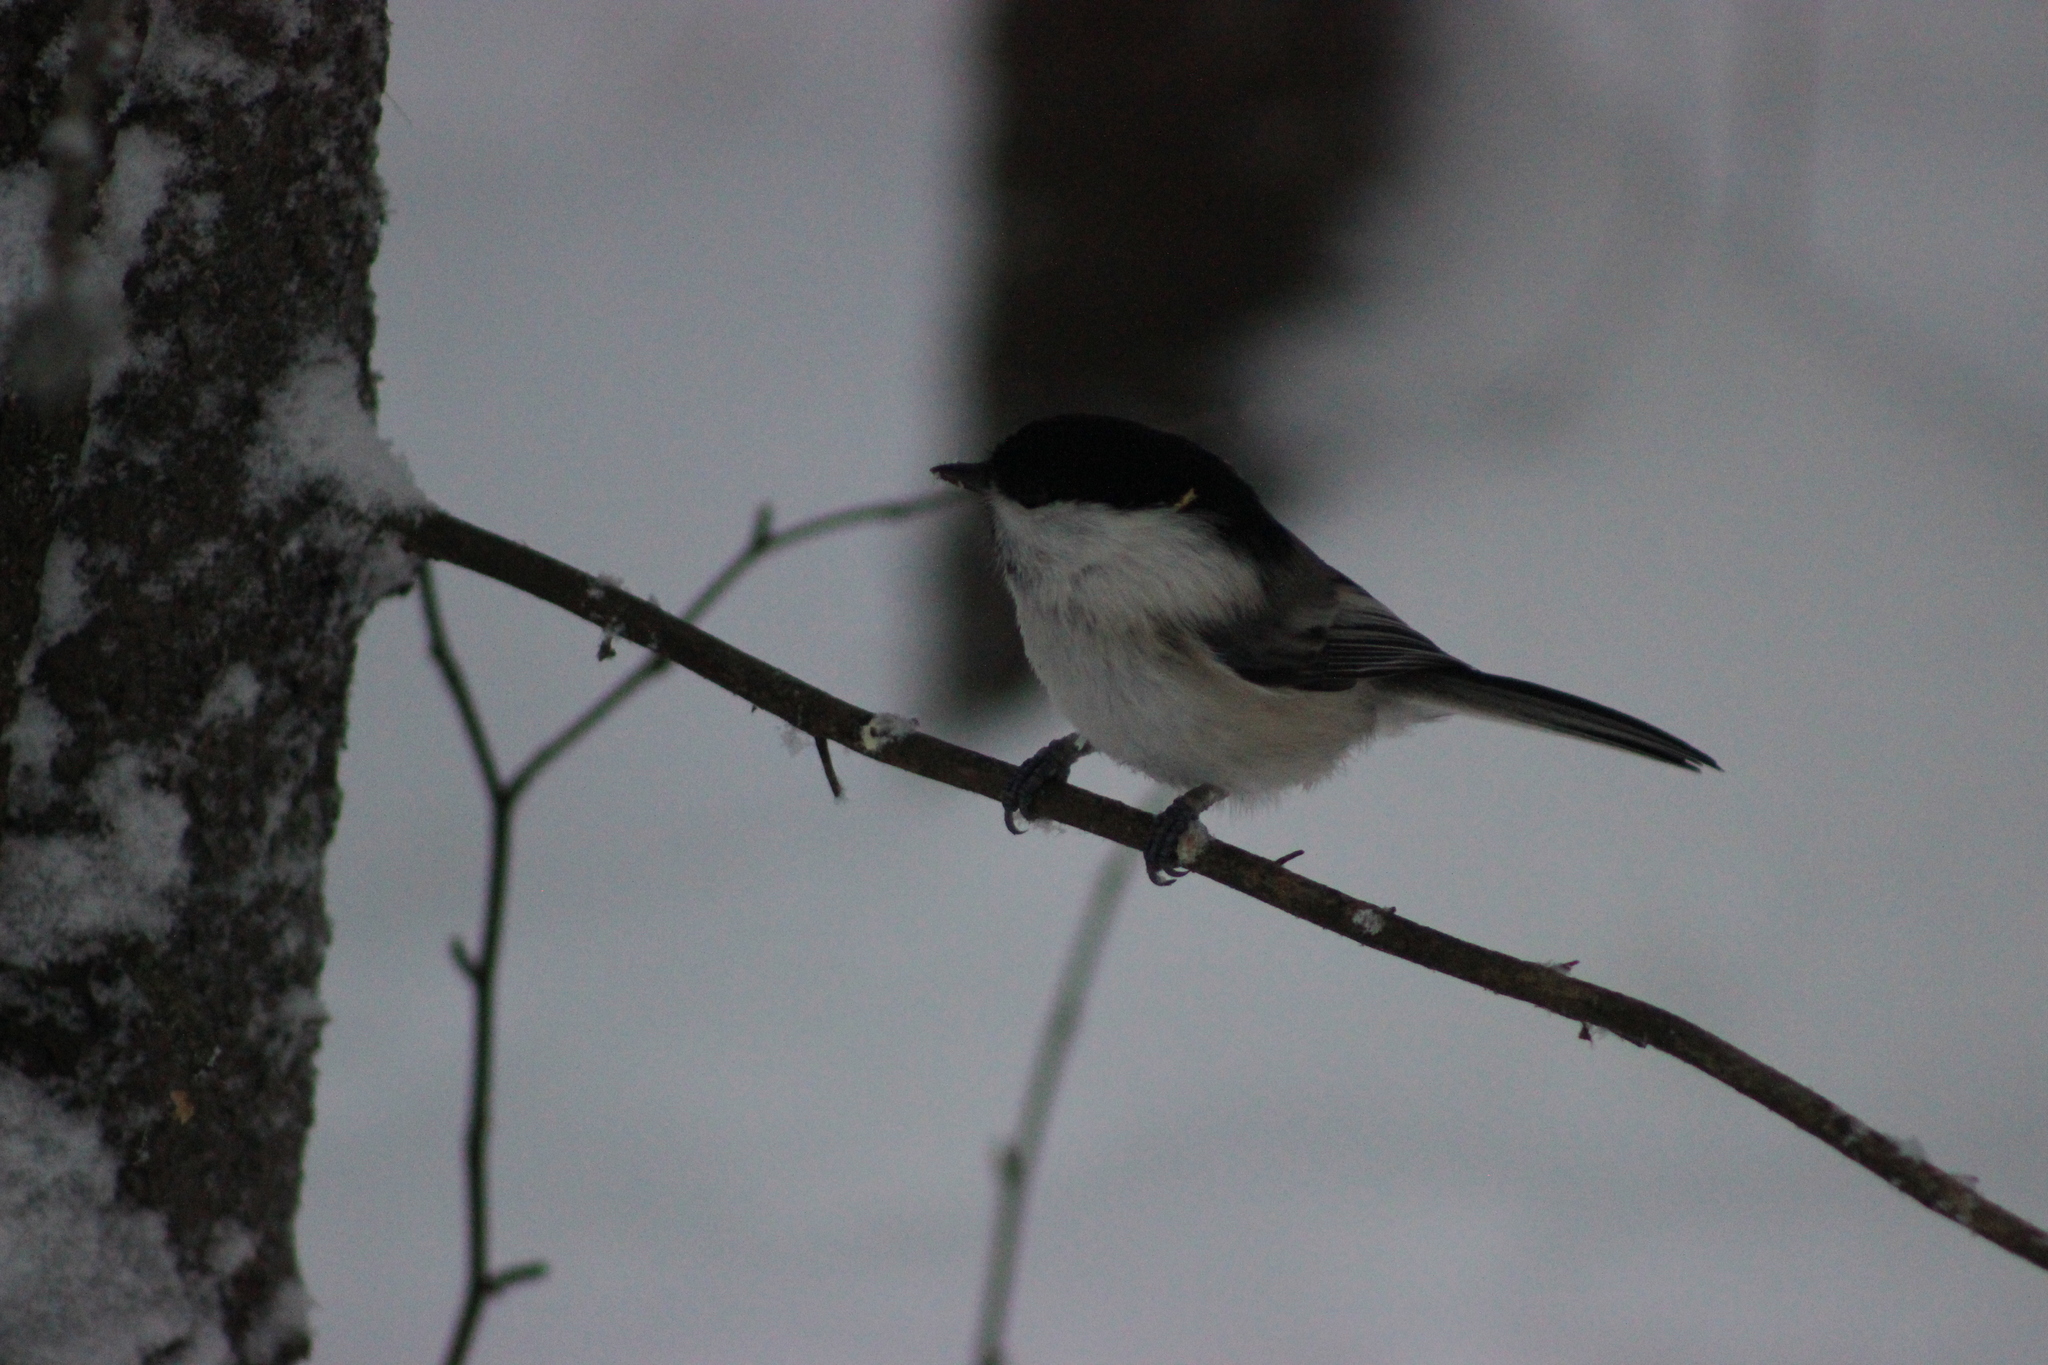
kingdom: Animalia
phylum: Chordata
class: Aves
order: Passeriformes
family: Paridae
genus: Poecile
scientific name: Poecile montanus
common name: Willow tit
